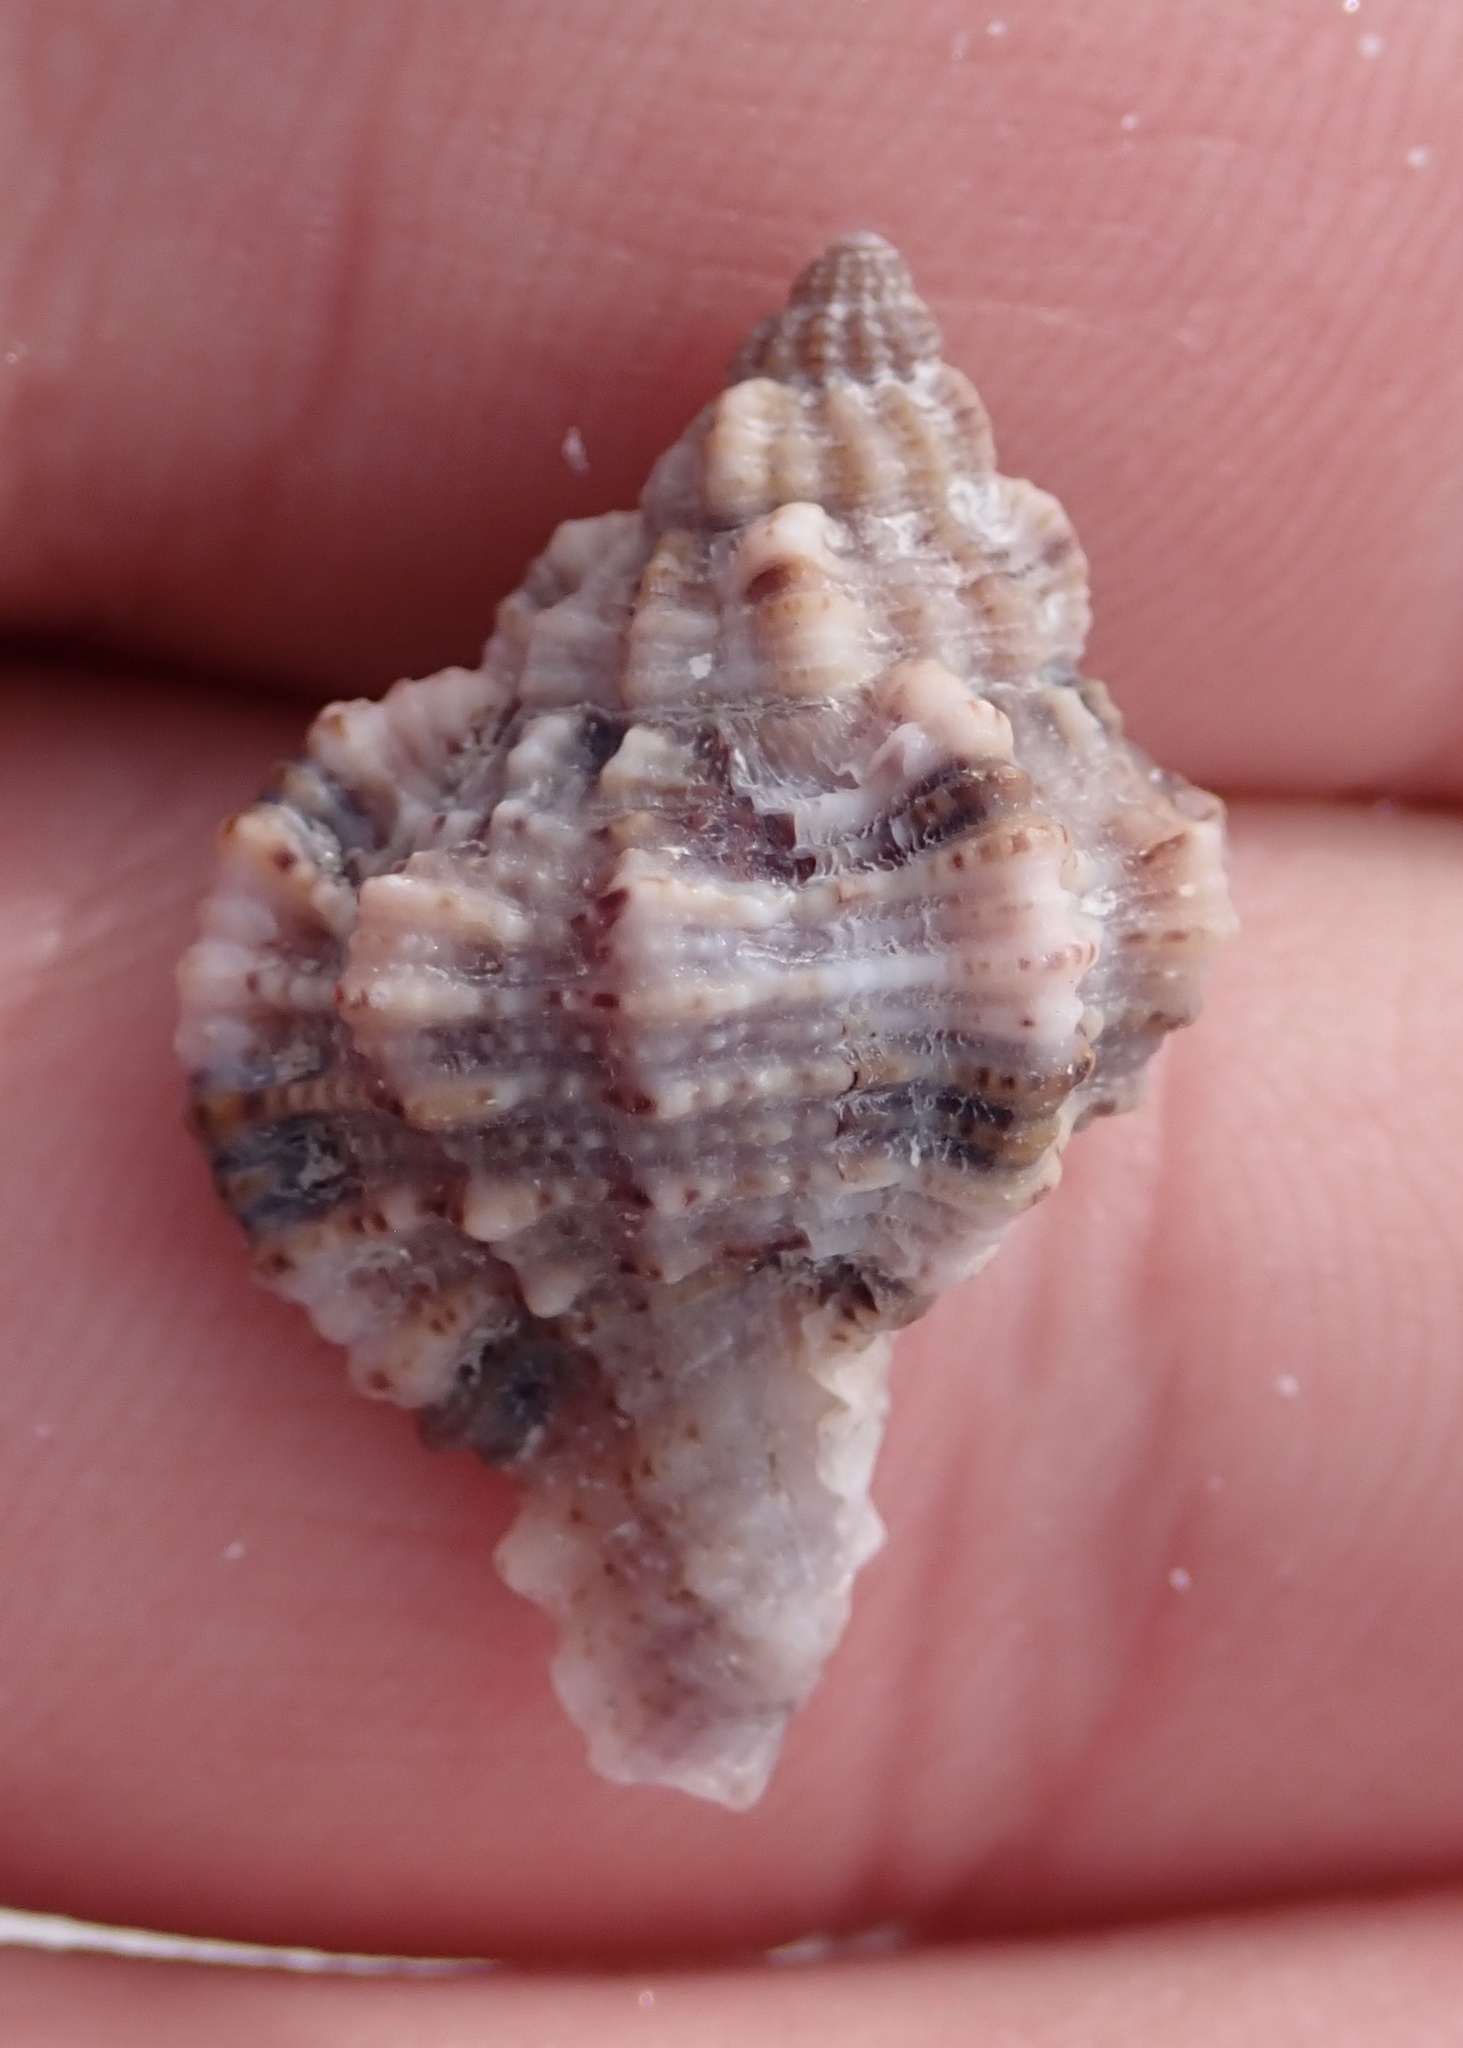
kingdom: Animalia
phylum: Mollusca
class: Gastropoda
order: Neogastropoda
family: Muricidae
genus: Phyllonotus
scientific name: Phyllonotus pomum
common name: Apple murex
